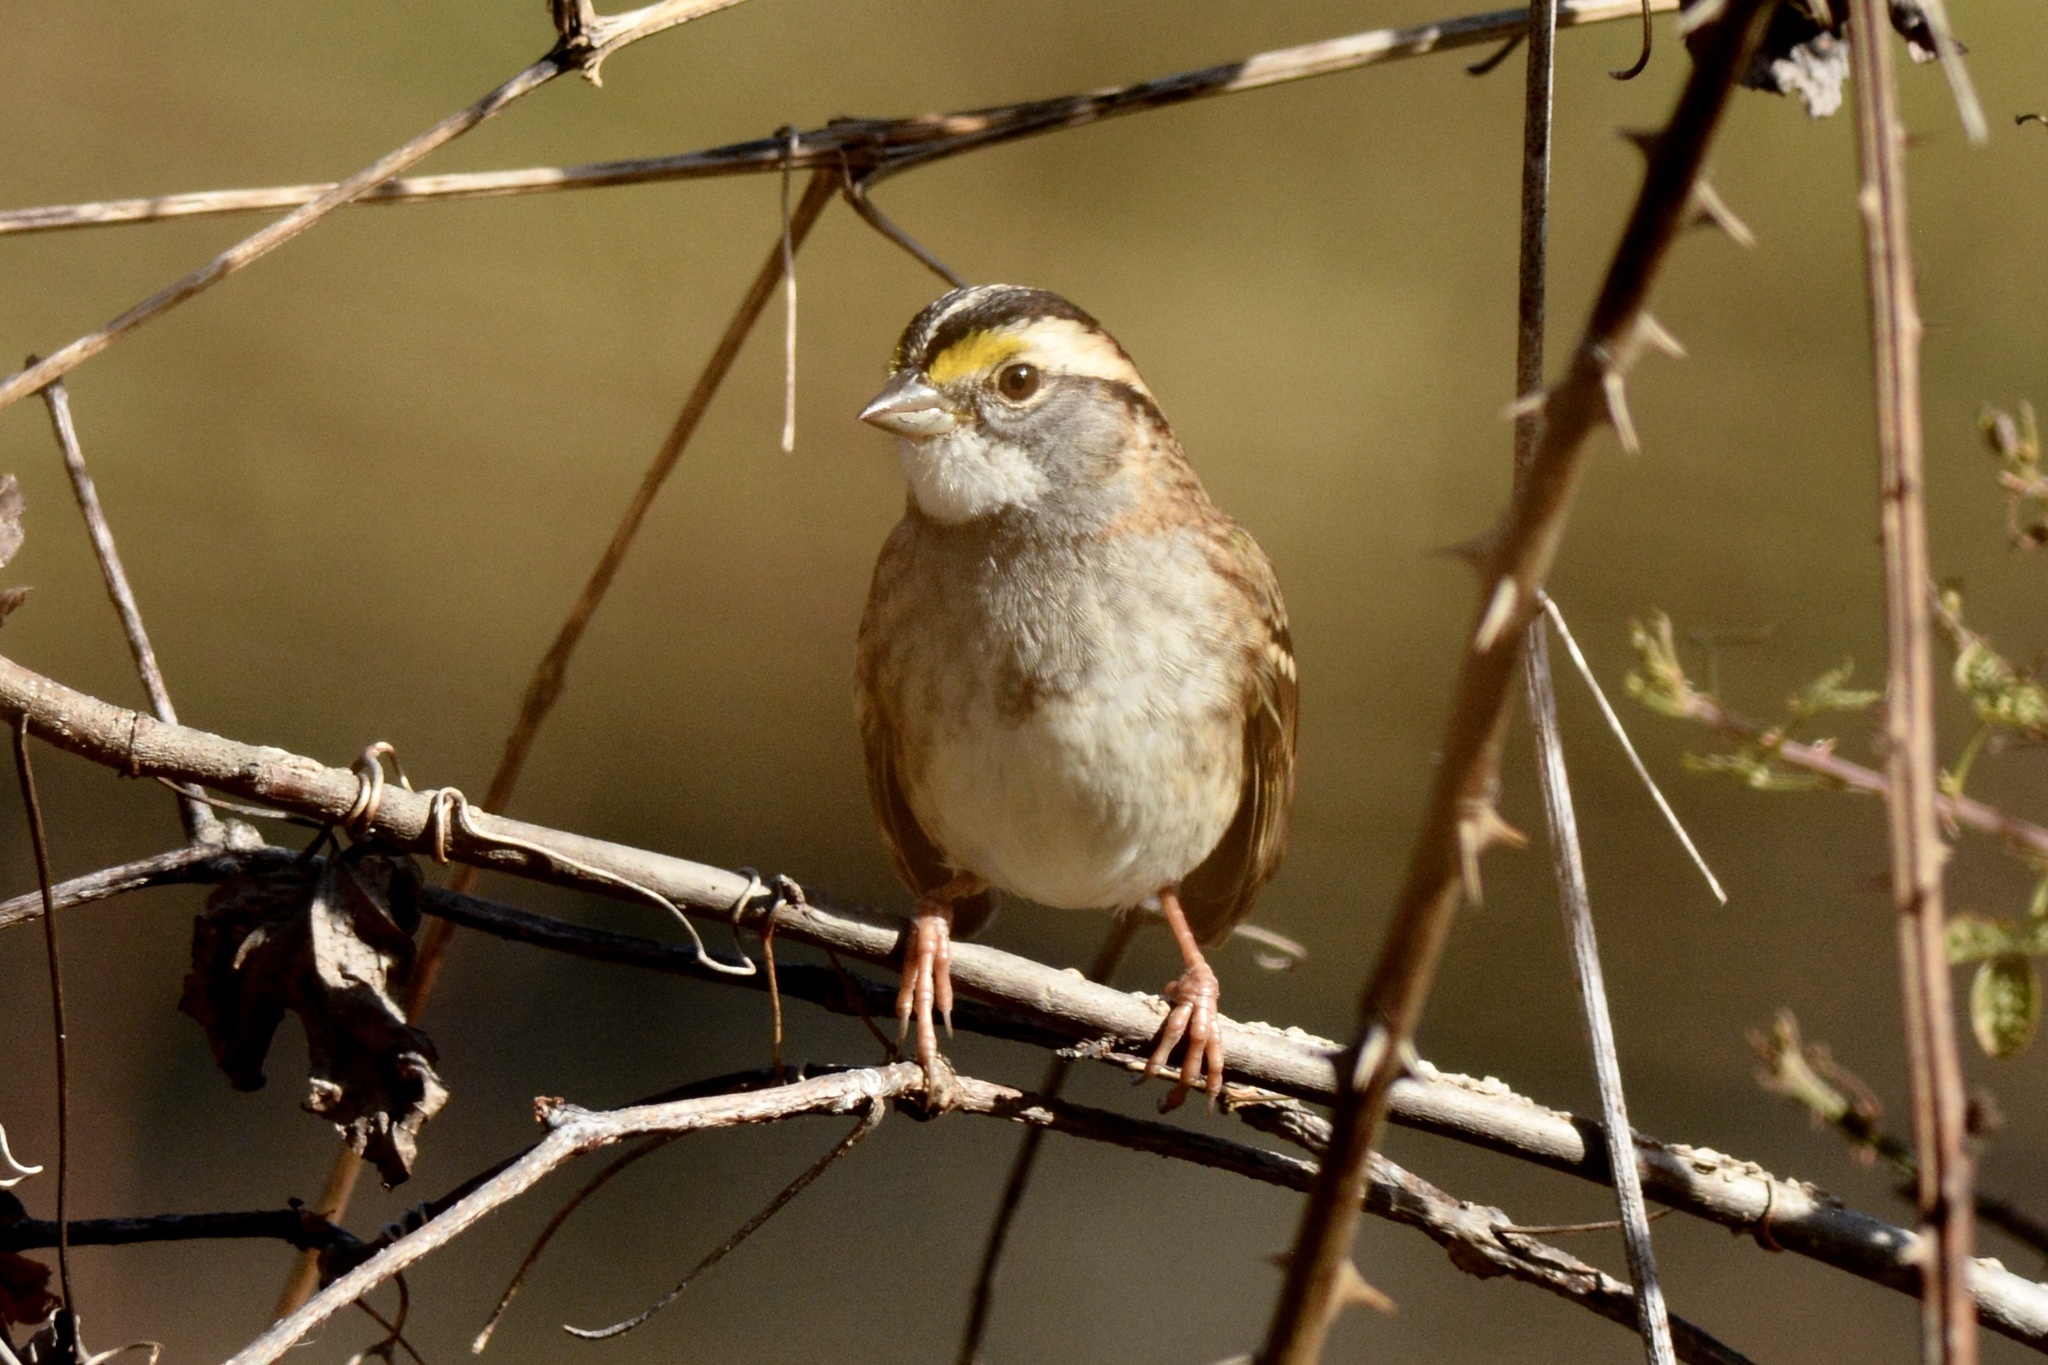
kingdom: Animalia
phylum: Chordata
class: Aves
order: Passeriformes
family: Passerellidae
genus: Zonotrichia
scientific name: Zonotrichia albicollis
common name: White-throated sparrow
